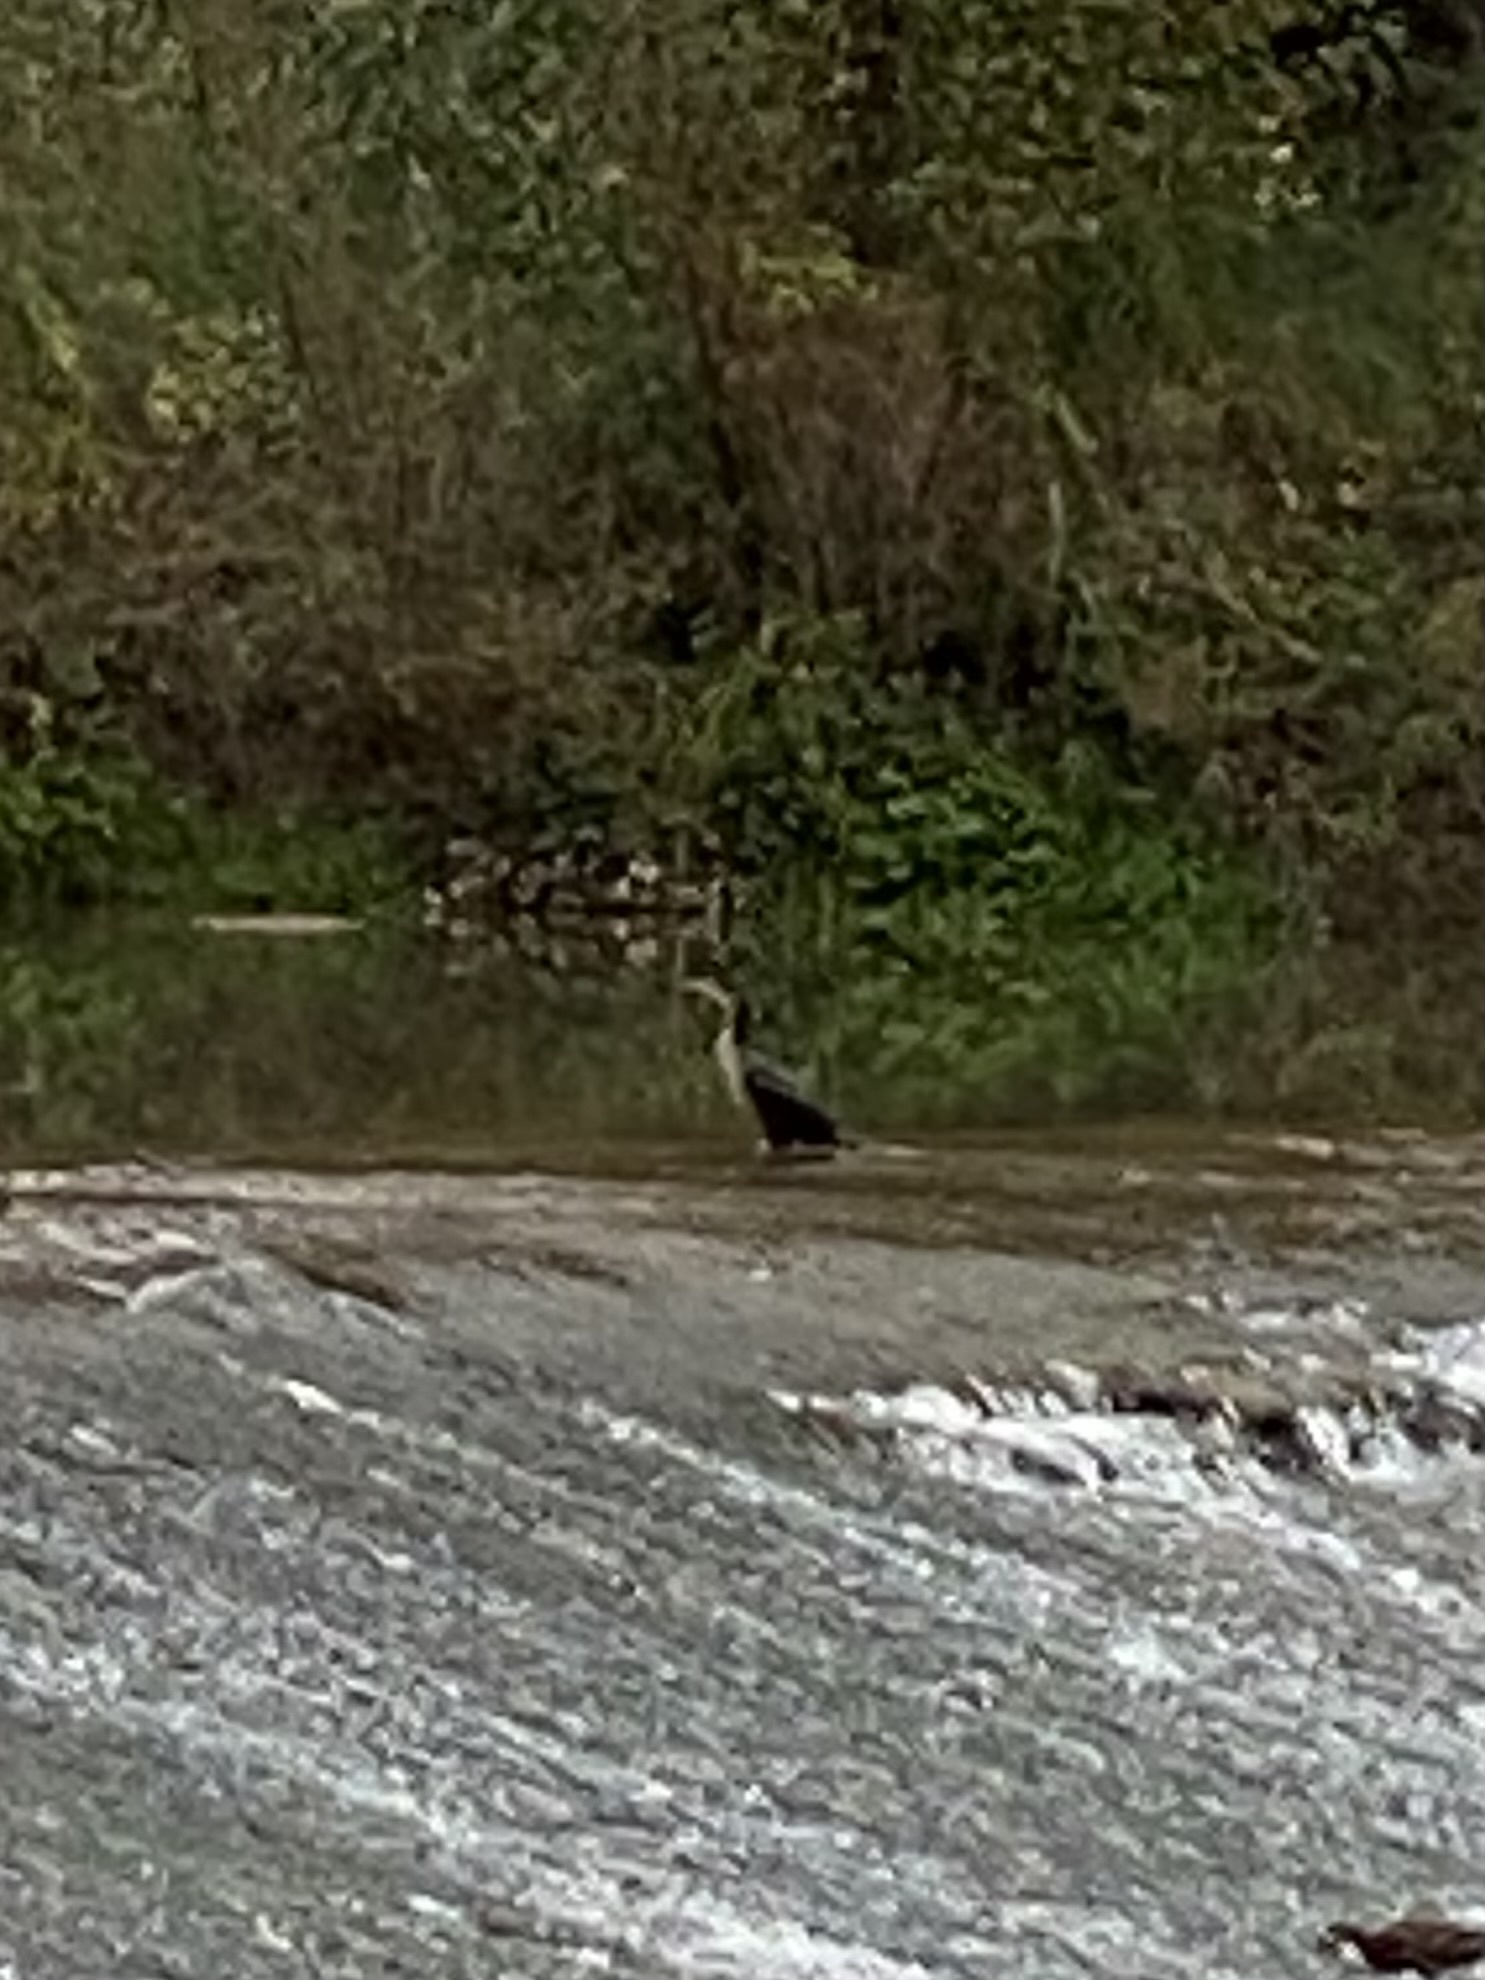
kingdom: Animalia
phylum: Chordata
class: Aves
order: Suliformes
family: Phalacrocoracidae
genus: Phalacrocorax
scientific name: Phalacrocorax carbo
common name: Great cormorant
